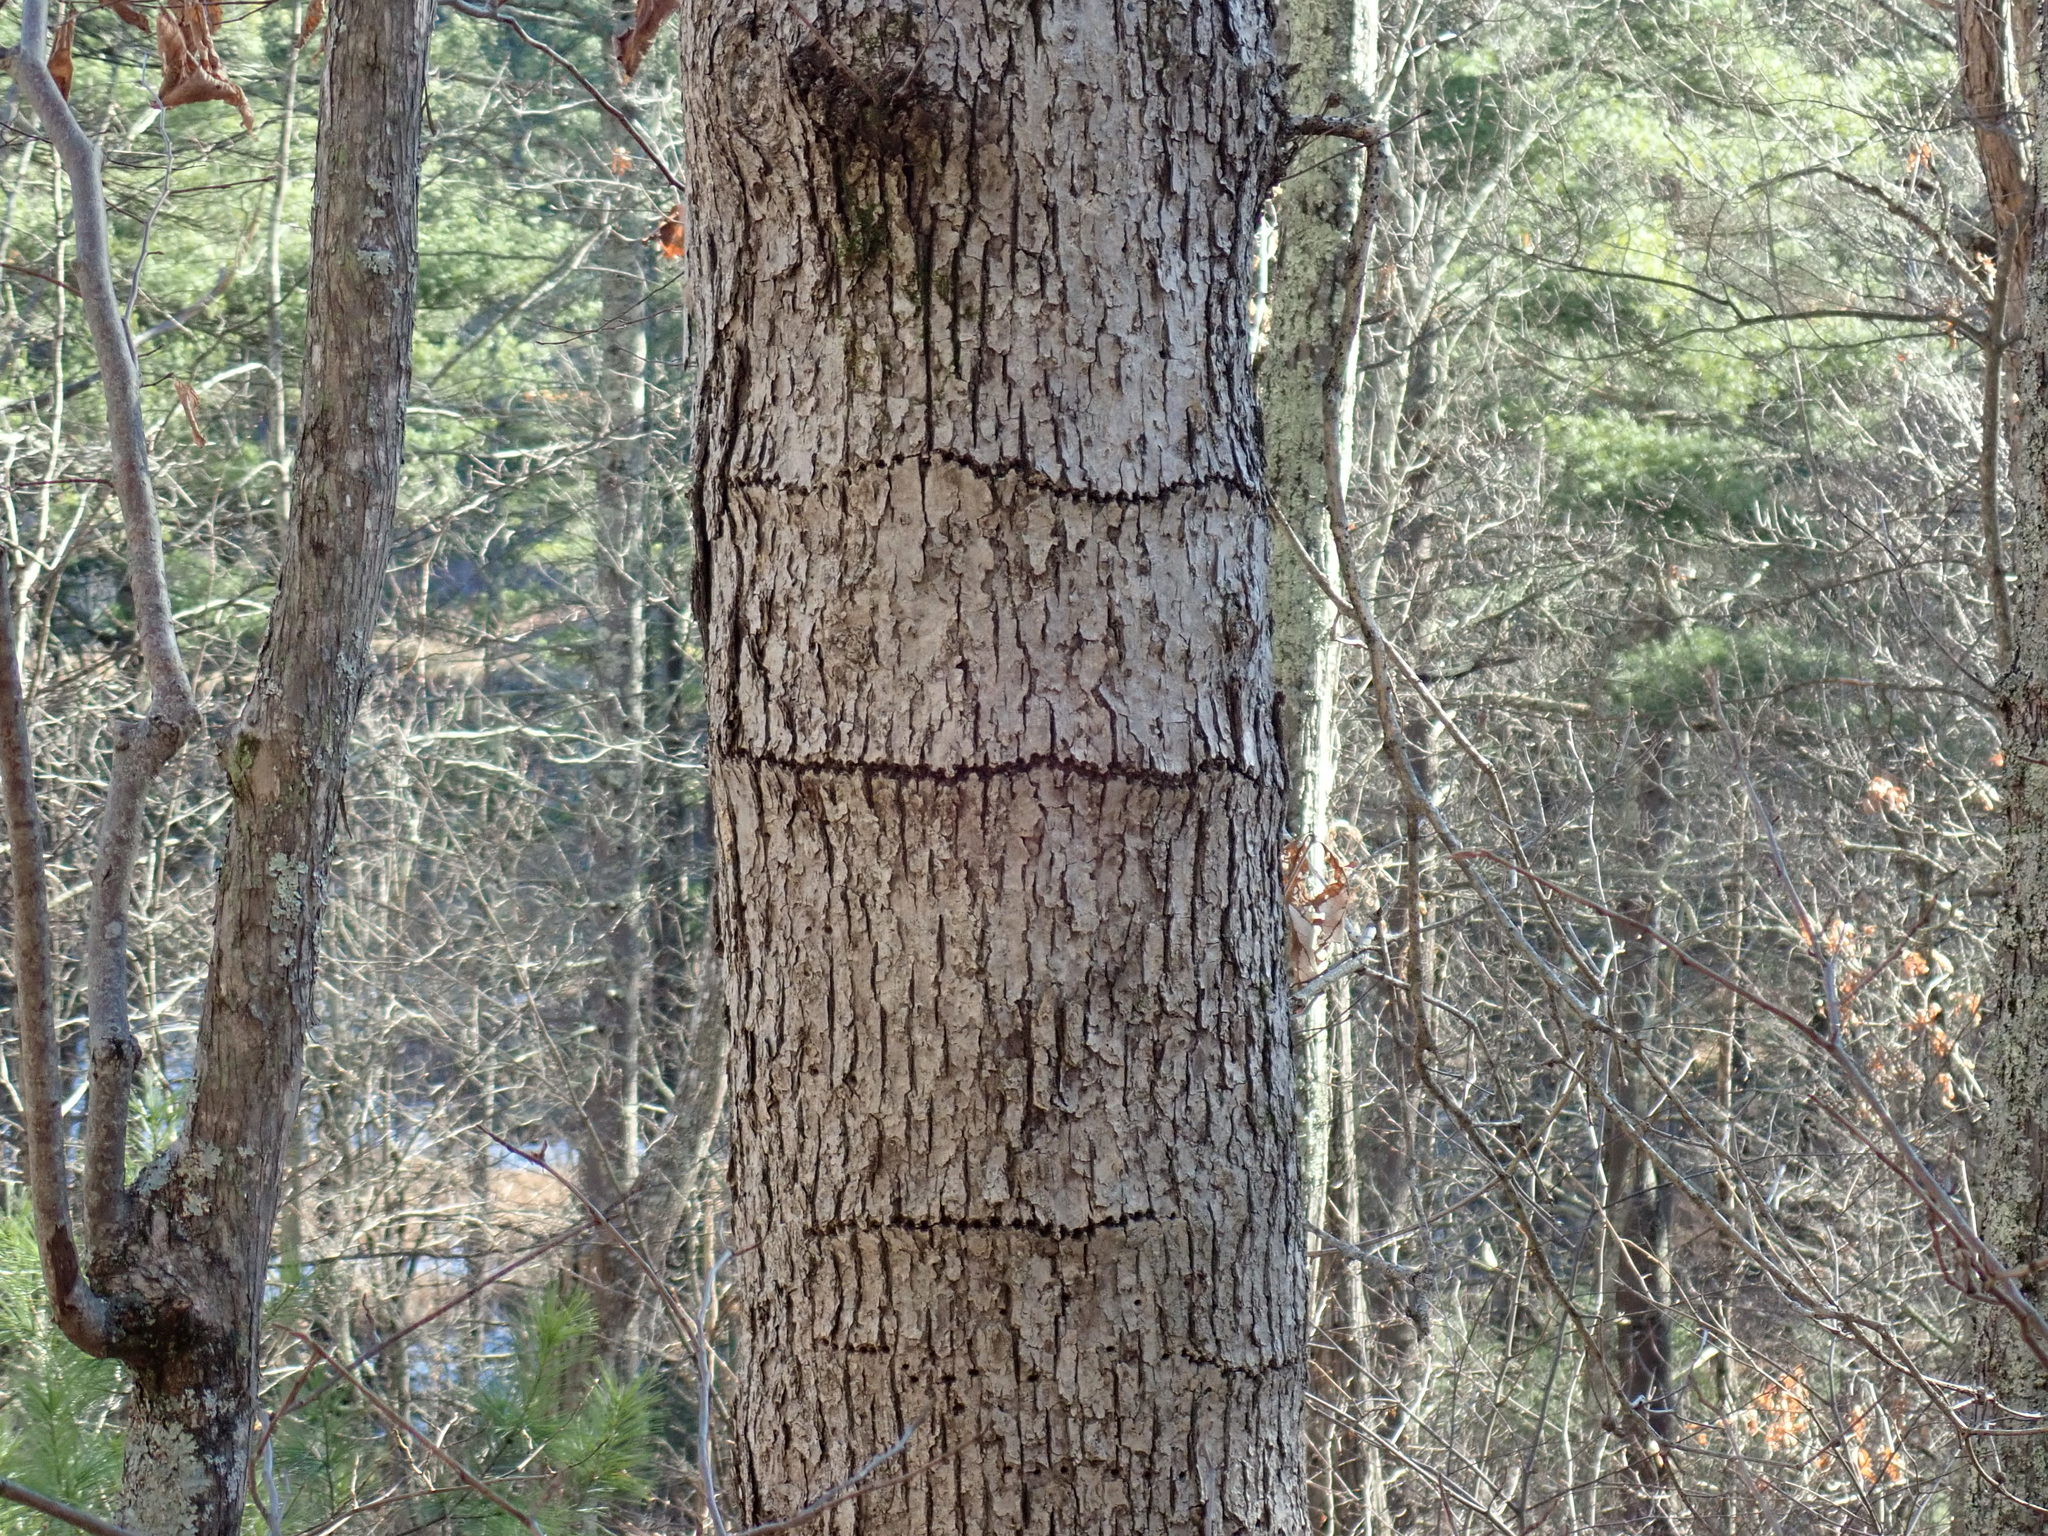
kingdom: Animalia
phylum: Chordata
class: Aves
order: Piciformes
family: Picidae
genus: Sphyrapicus
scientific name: Sphyrapicus varius
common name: Yellow-bellied sapsucker
